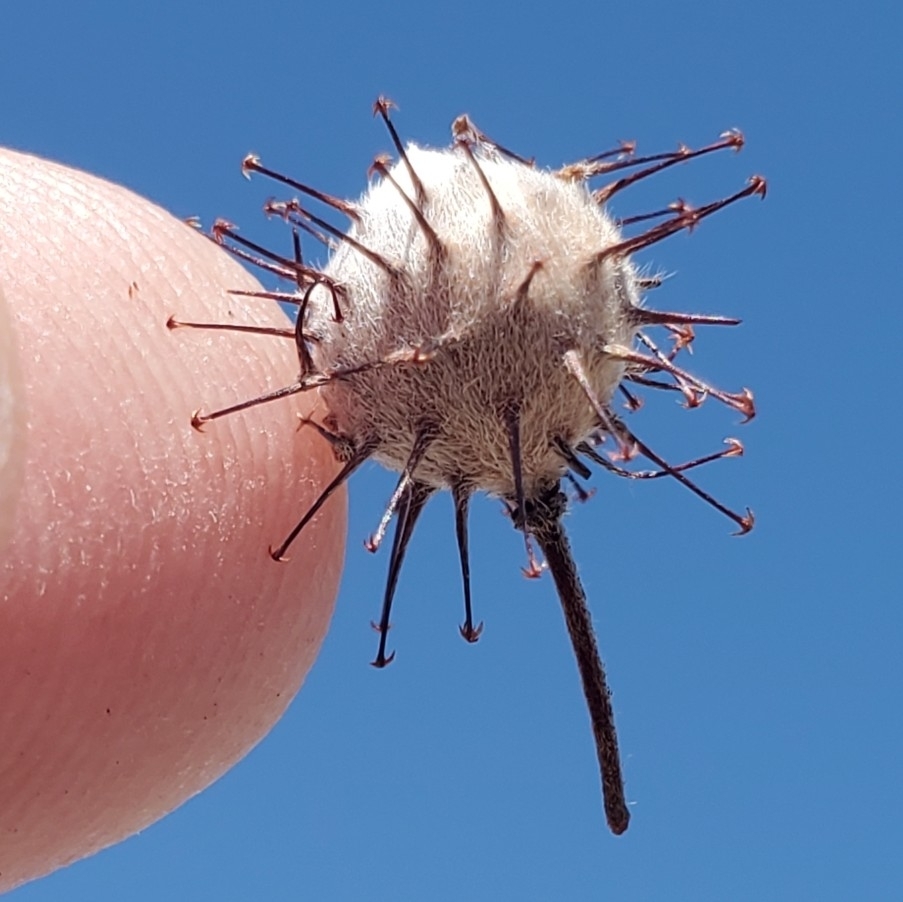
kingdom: Plantae
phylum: Tracheophyta
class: Magnoliopsida
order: Zygophyllales
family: Krameriaceae
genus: Krameria
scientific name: Krameria bicolor
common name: White ratany
